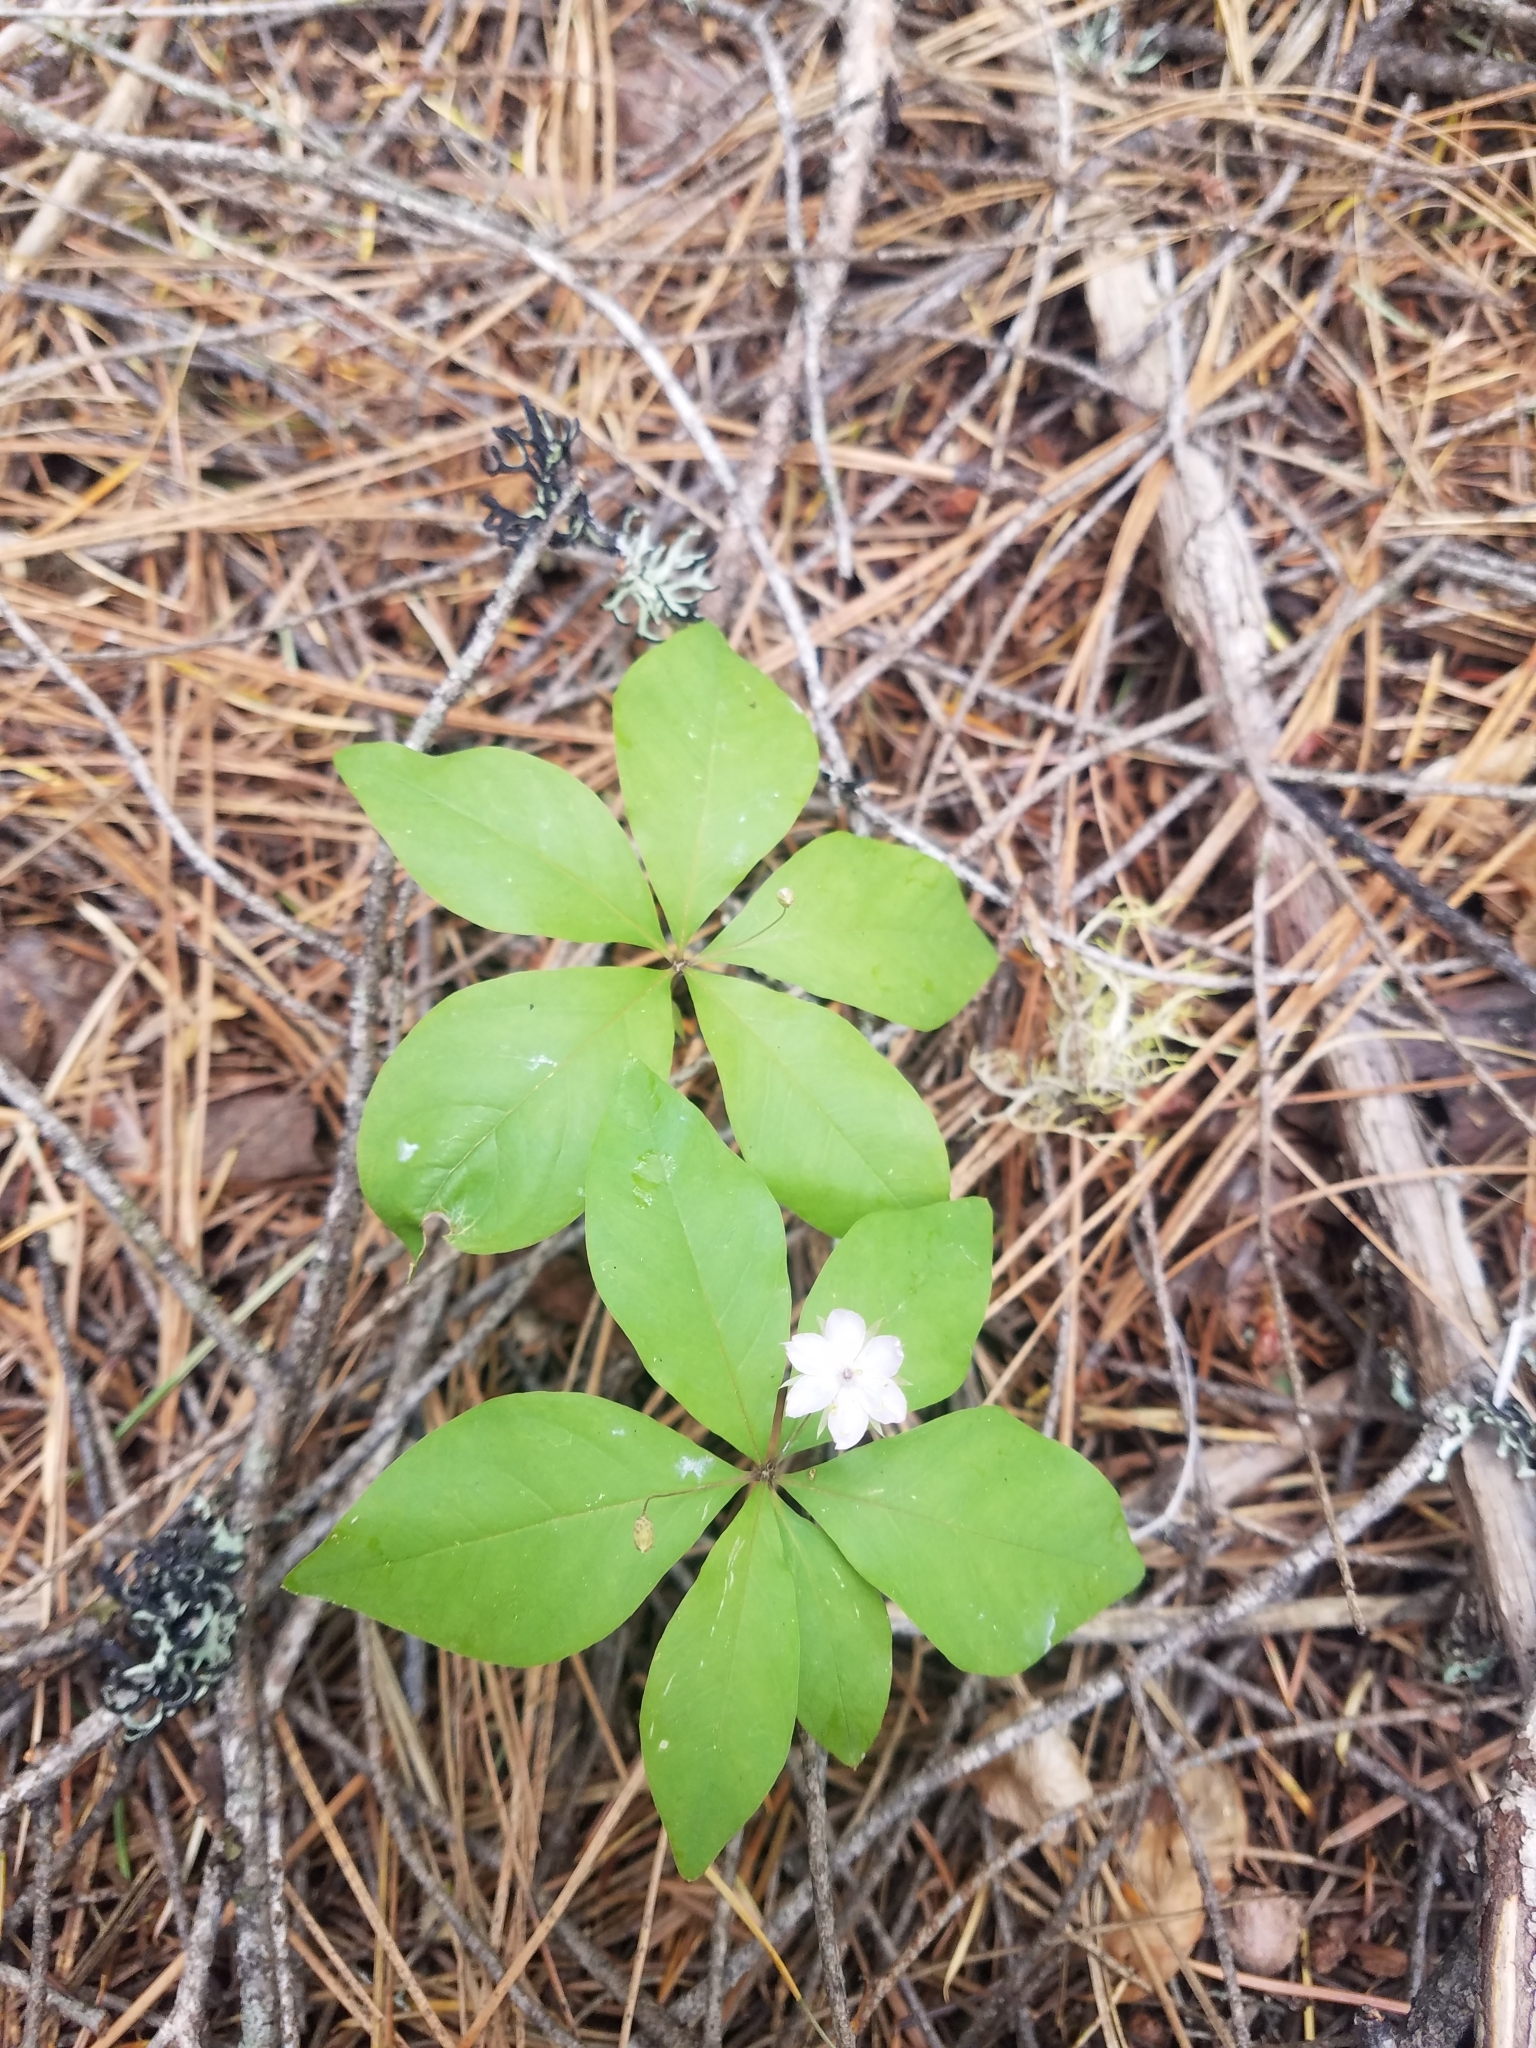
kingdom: Plantae
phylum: Tracheophyta
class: Magnoliopsida
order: Ericales
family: Primulaceae
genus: Lysimachia
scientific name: Lysimachia latifolia
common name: Pacific starflower
